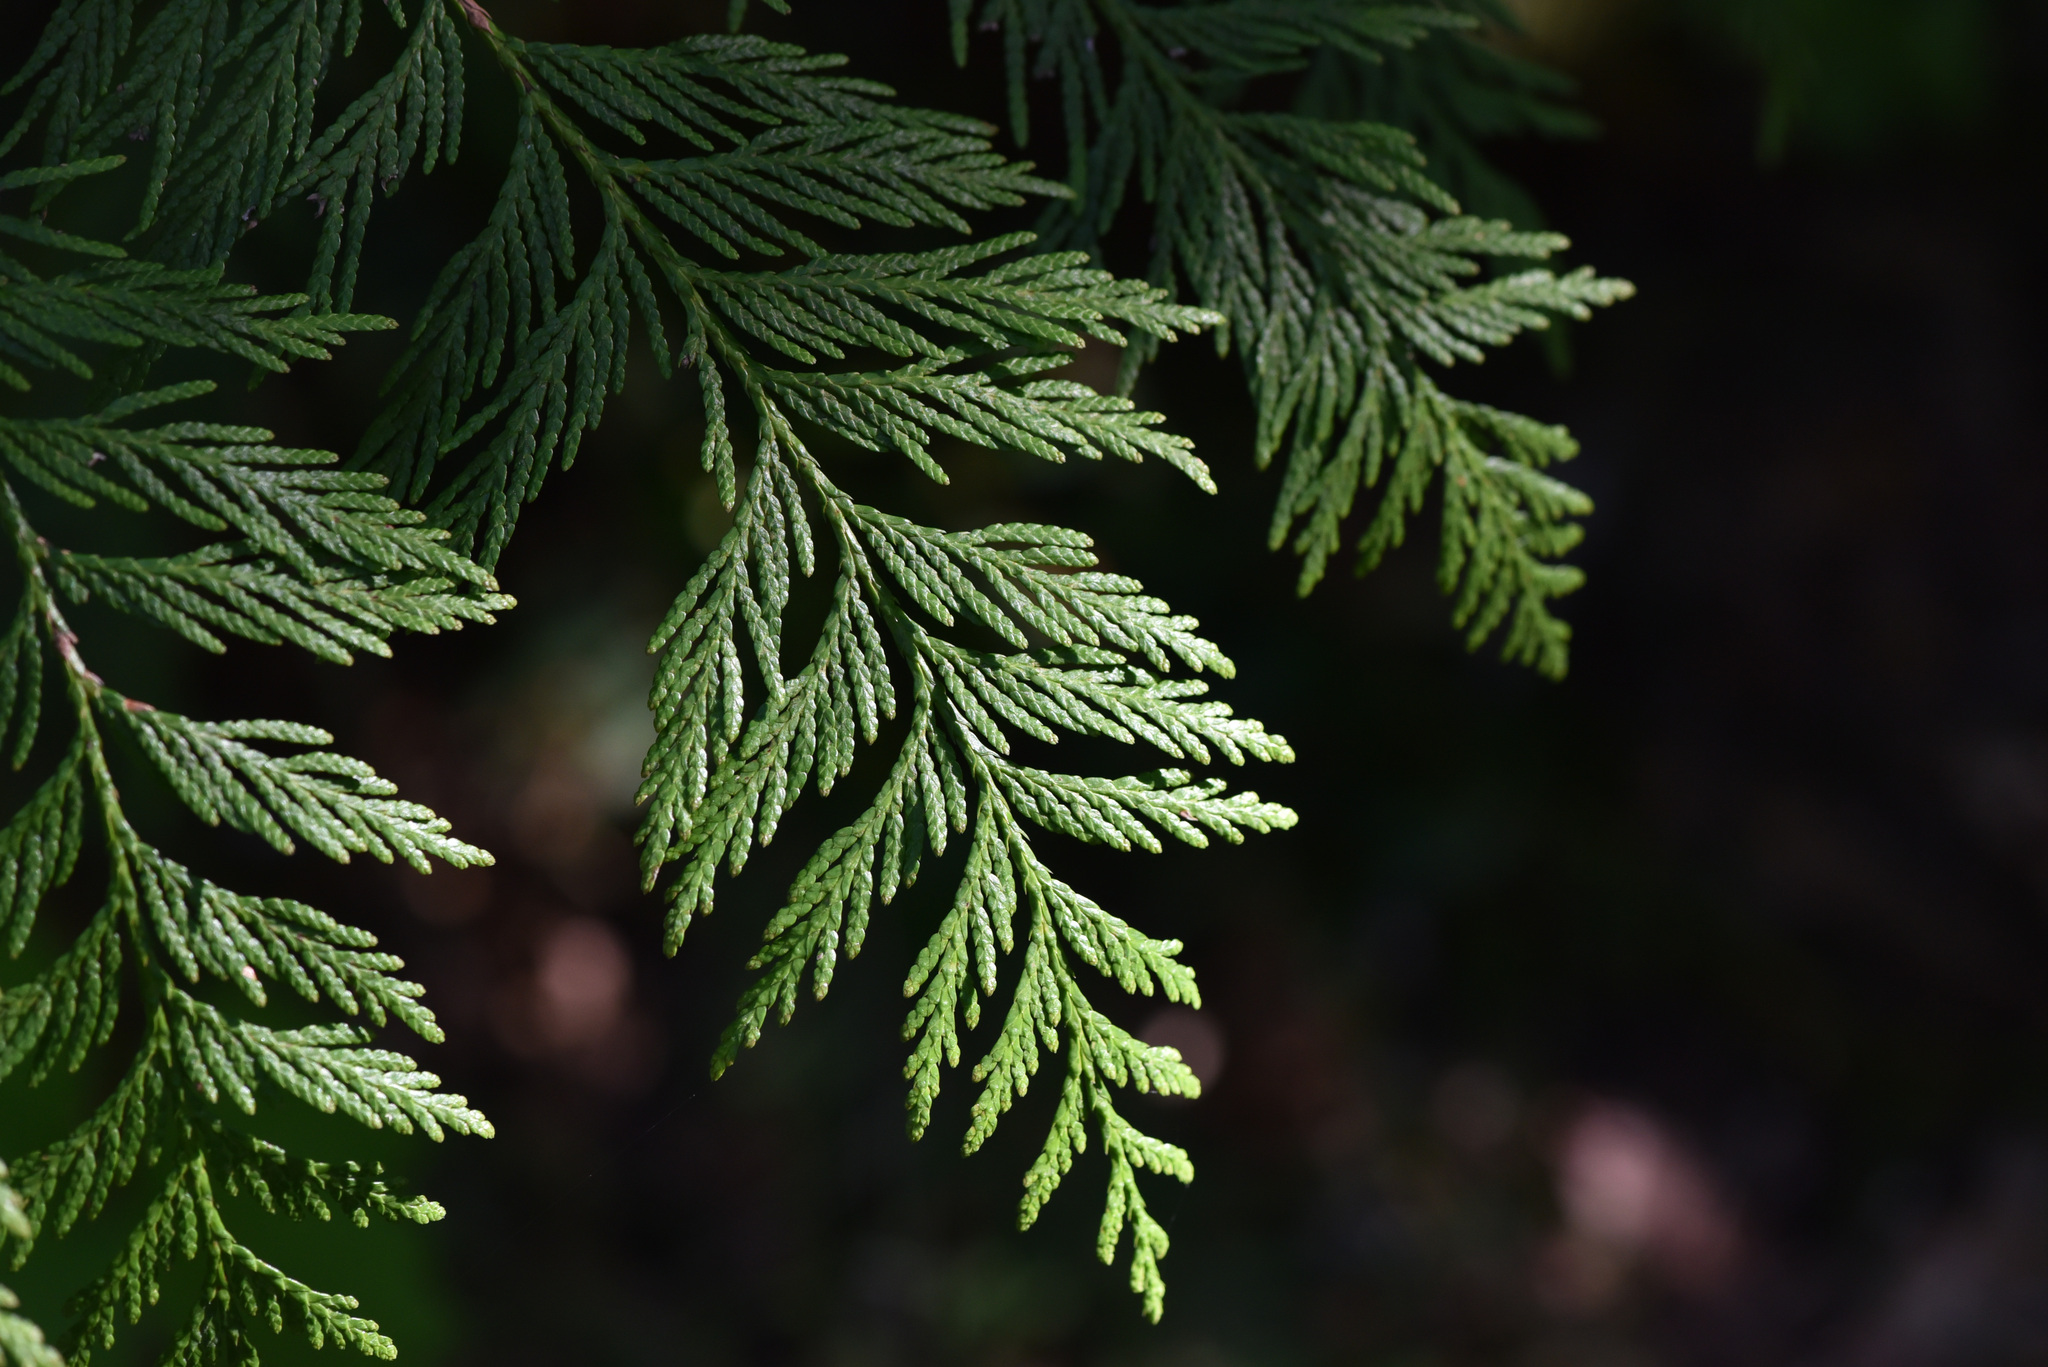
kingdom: Plantae
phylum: Tracheophyta
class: Pinopsida
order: Pinales
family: Cupressaceae
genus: Thuja
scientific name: Thuja plicata
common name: Western red-cedar
